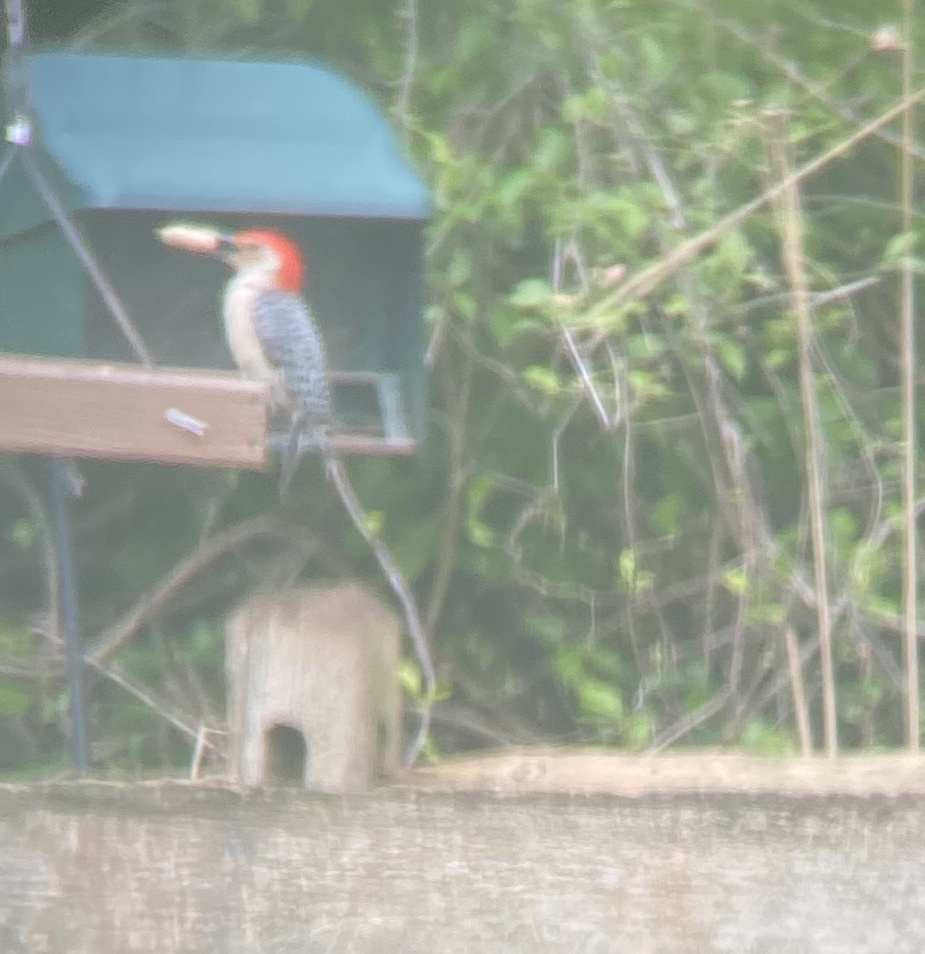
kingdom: Animalia
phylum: Chordata
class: Aves
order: Piciformes
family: Picidae
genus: Melanerpes
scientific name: Melanerpes carolinus
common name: Red-bellied woodpecker
